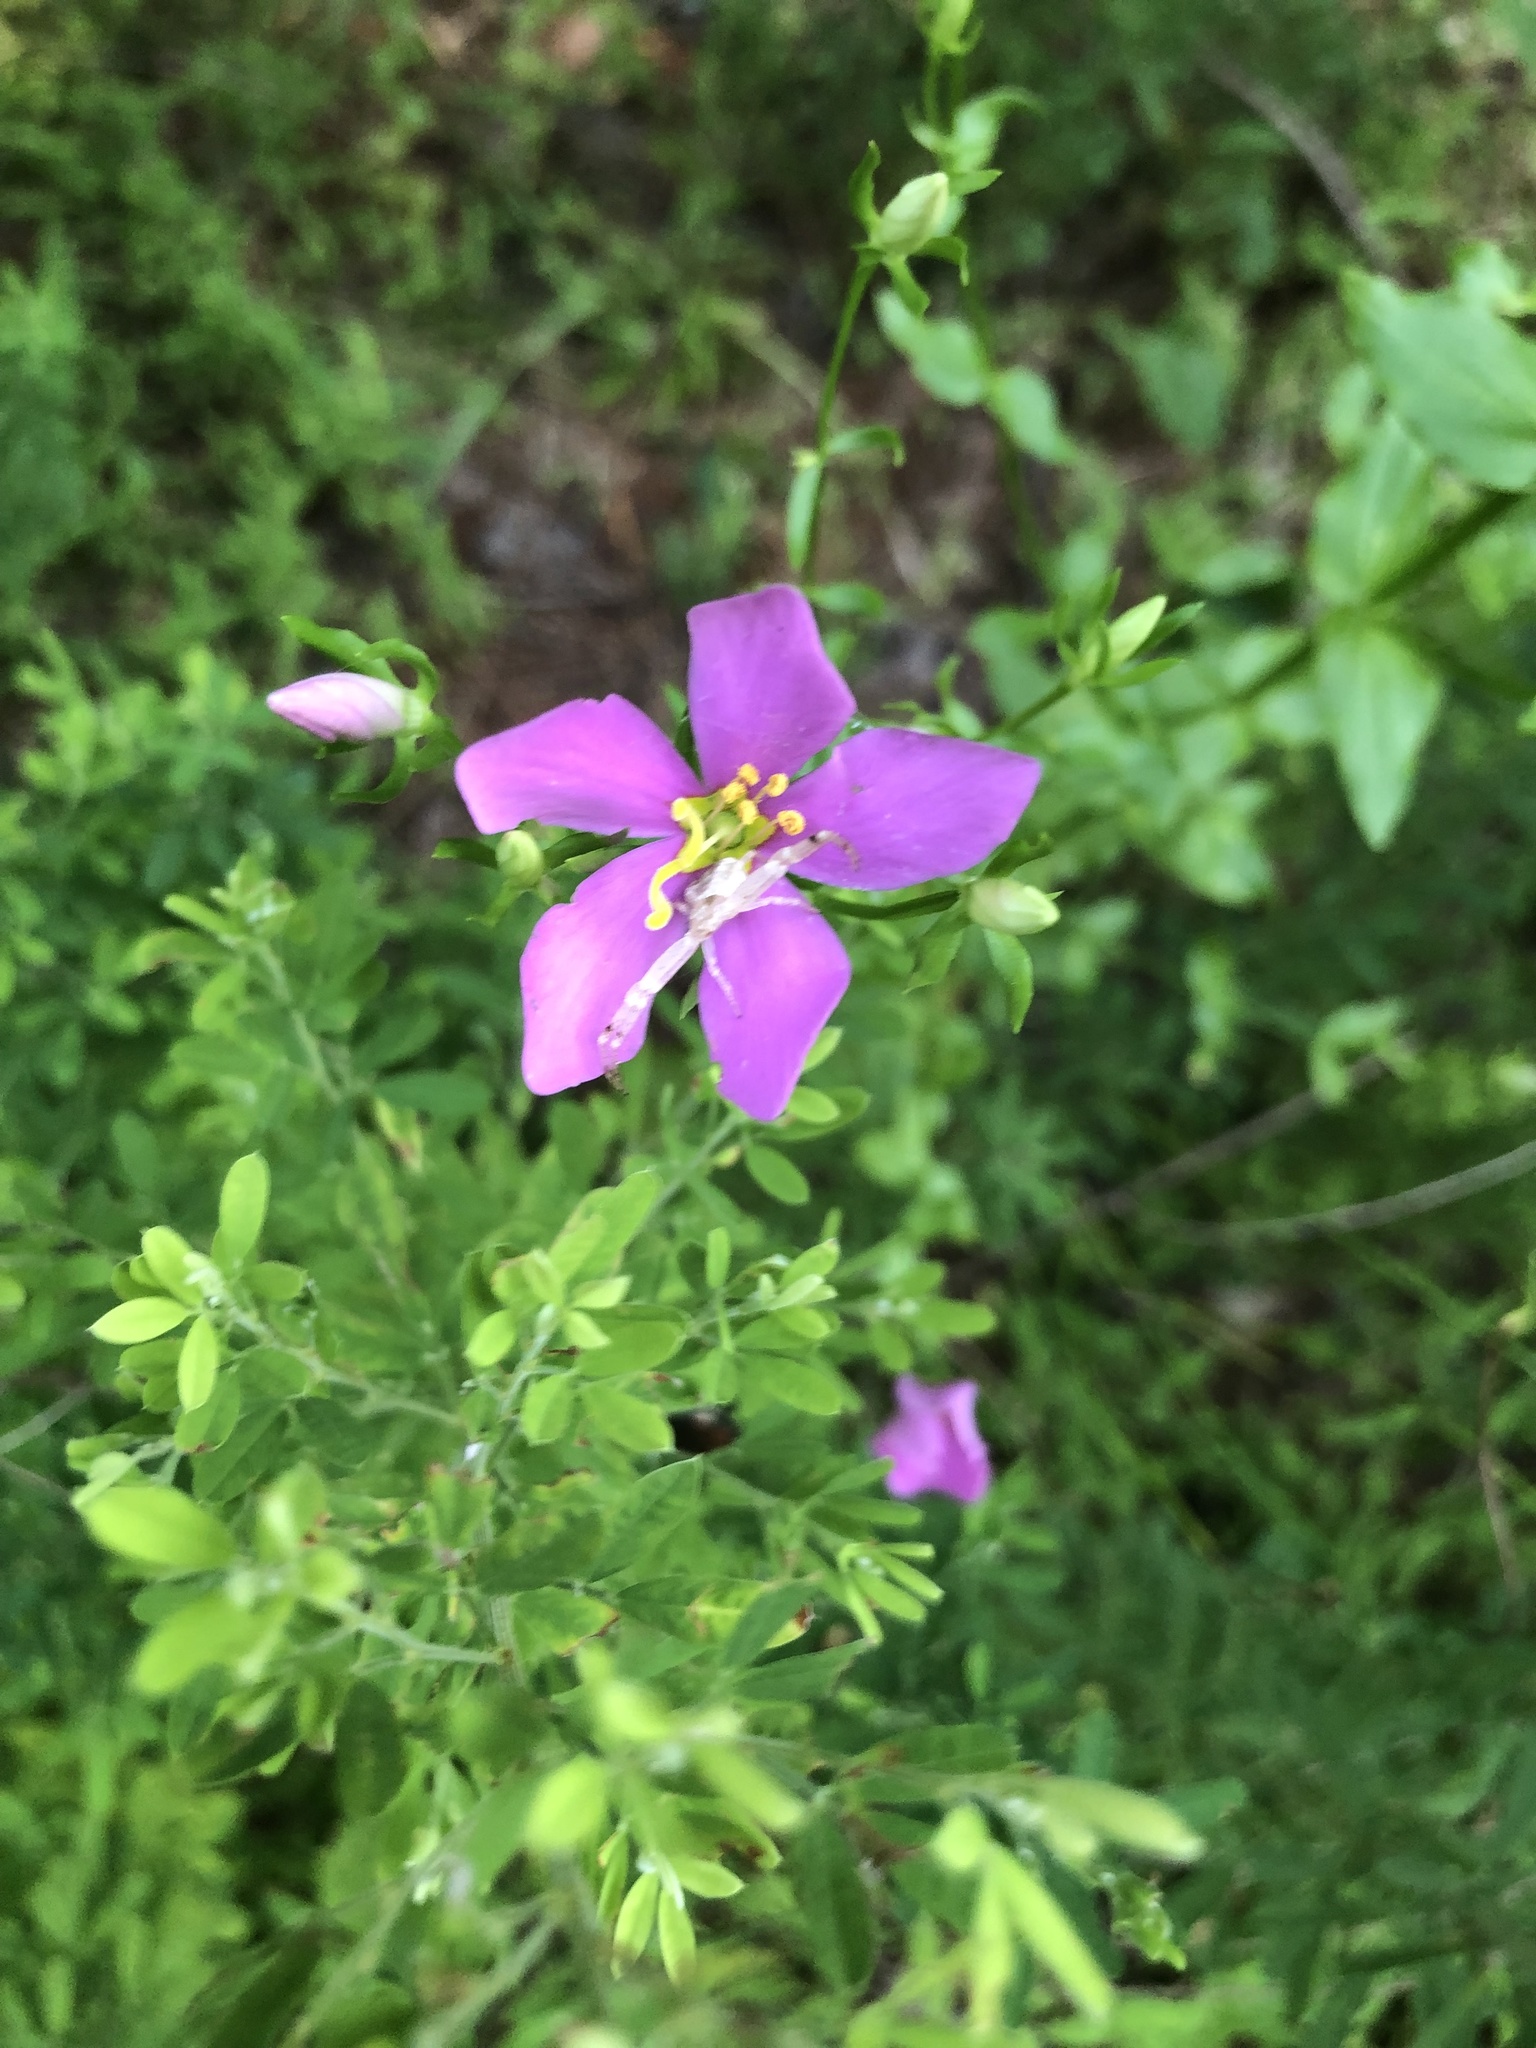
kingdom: Plantae
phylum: Tracheophyta
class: Magnoliopsida
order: Gentianales
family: Gentianaceae
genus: Sabatia
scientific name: Sabatia angularis
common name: Rose-pink
